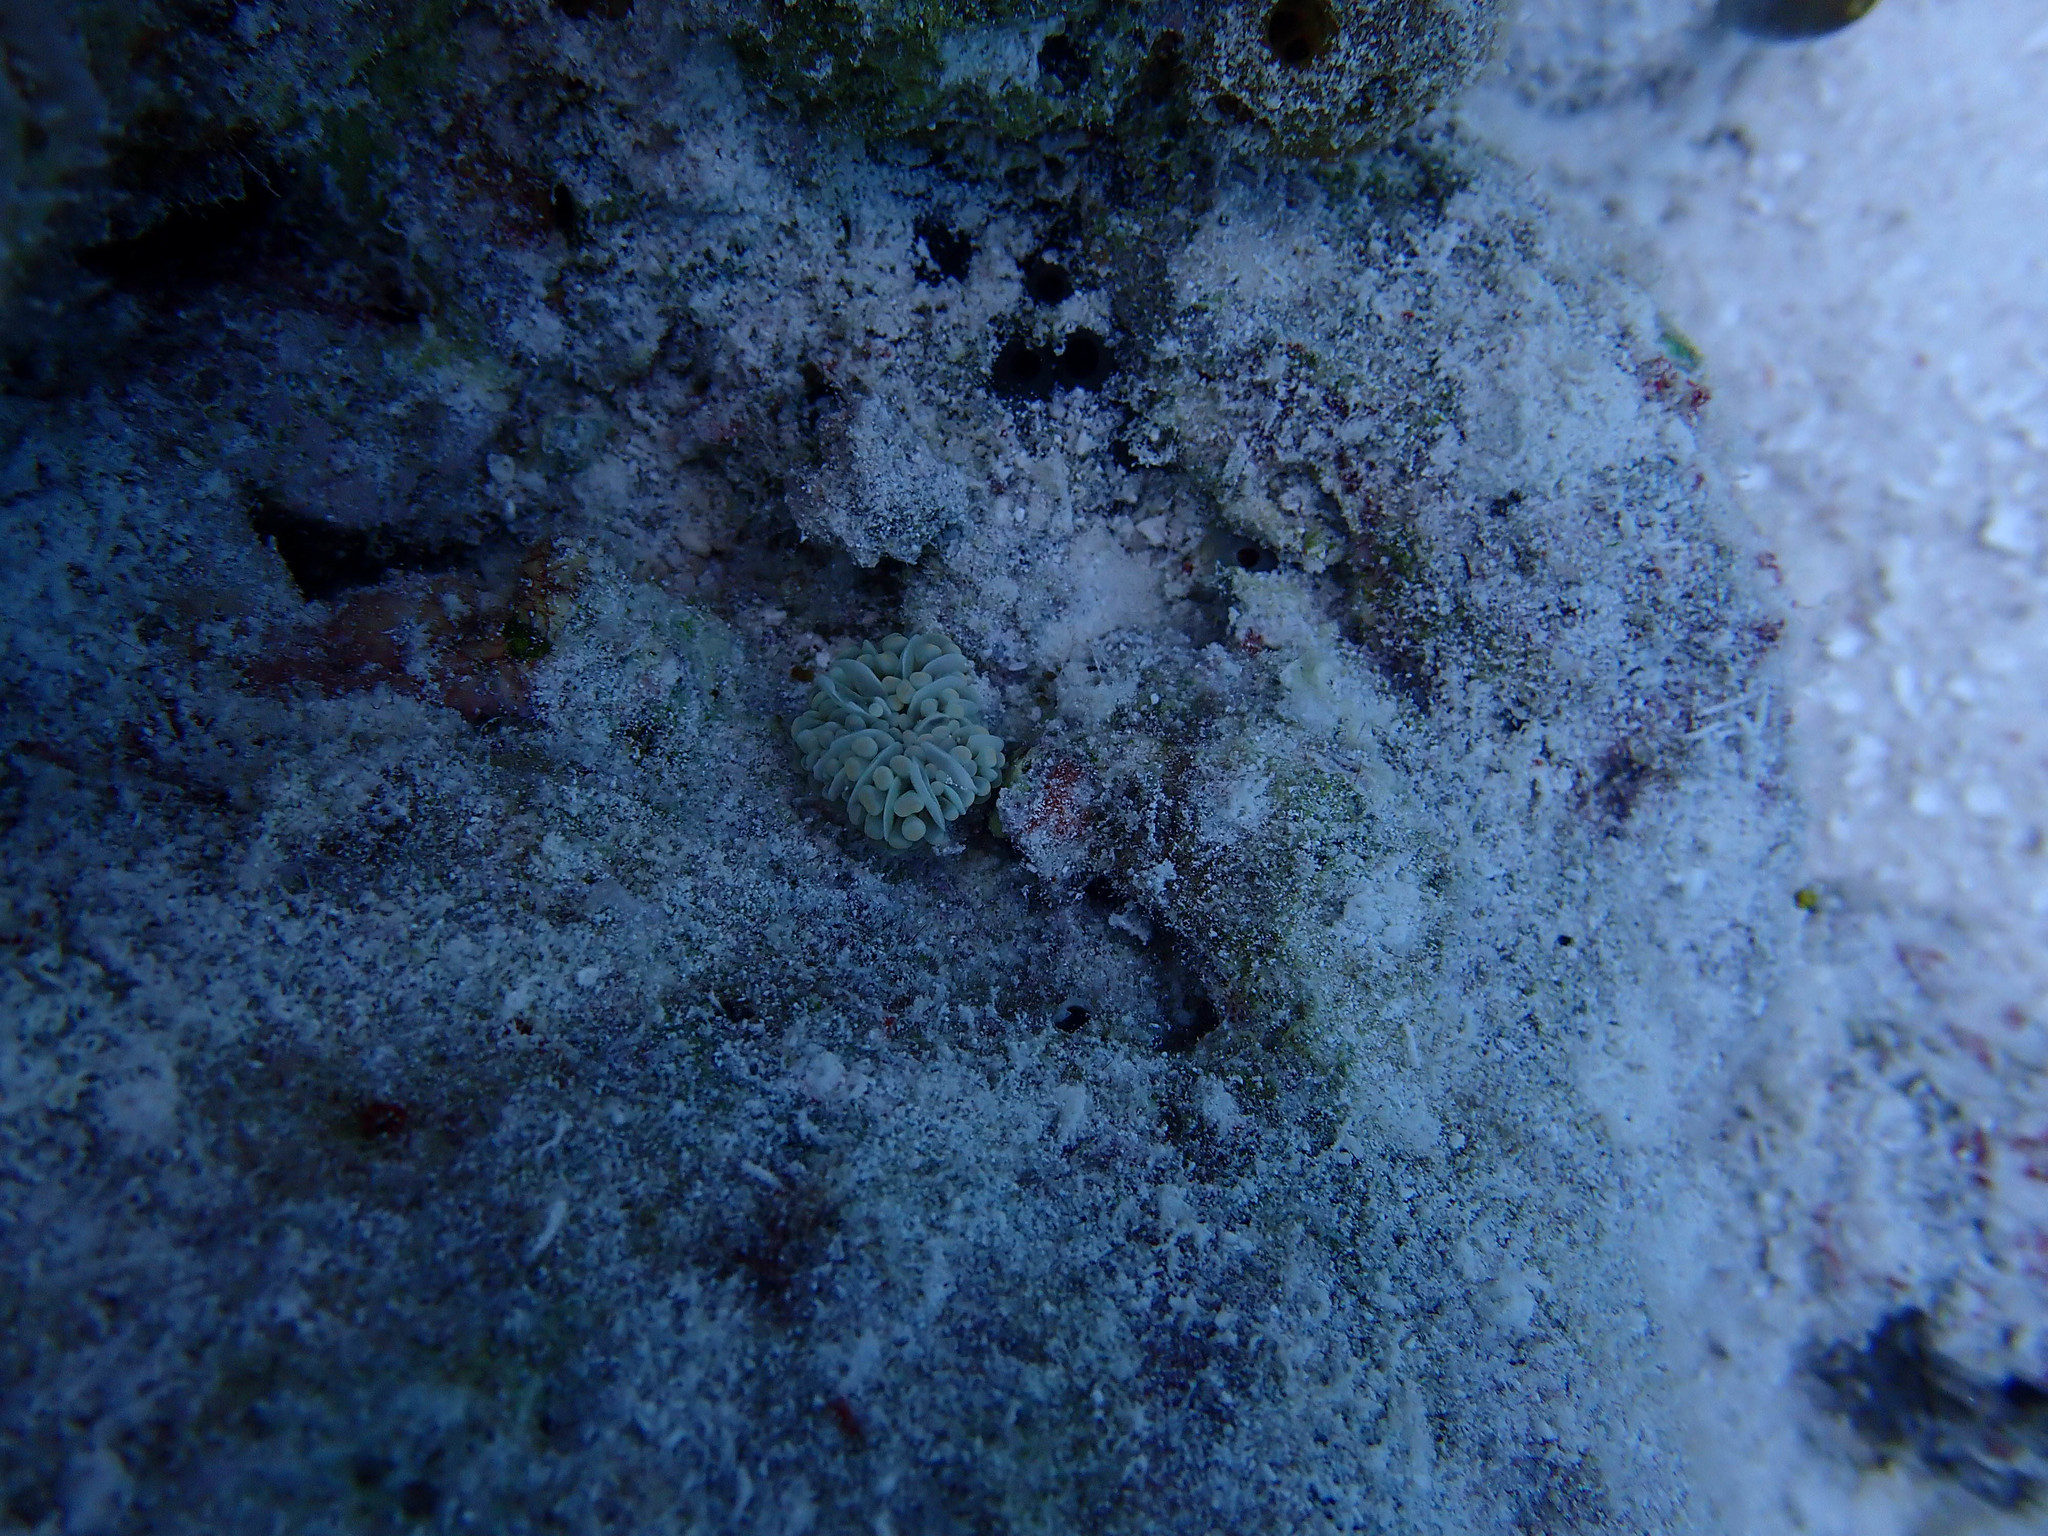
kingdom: Animalia
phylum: Cnidaria
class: Anthozoa
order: Scleractinia
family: Euphylliidae
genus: Euphyllia
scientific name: Euphyllia cristata
